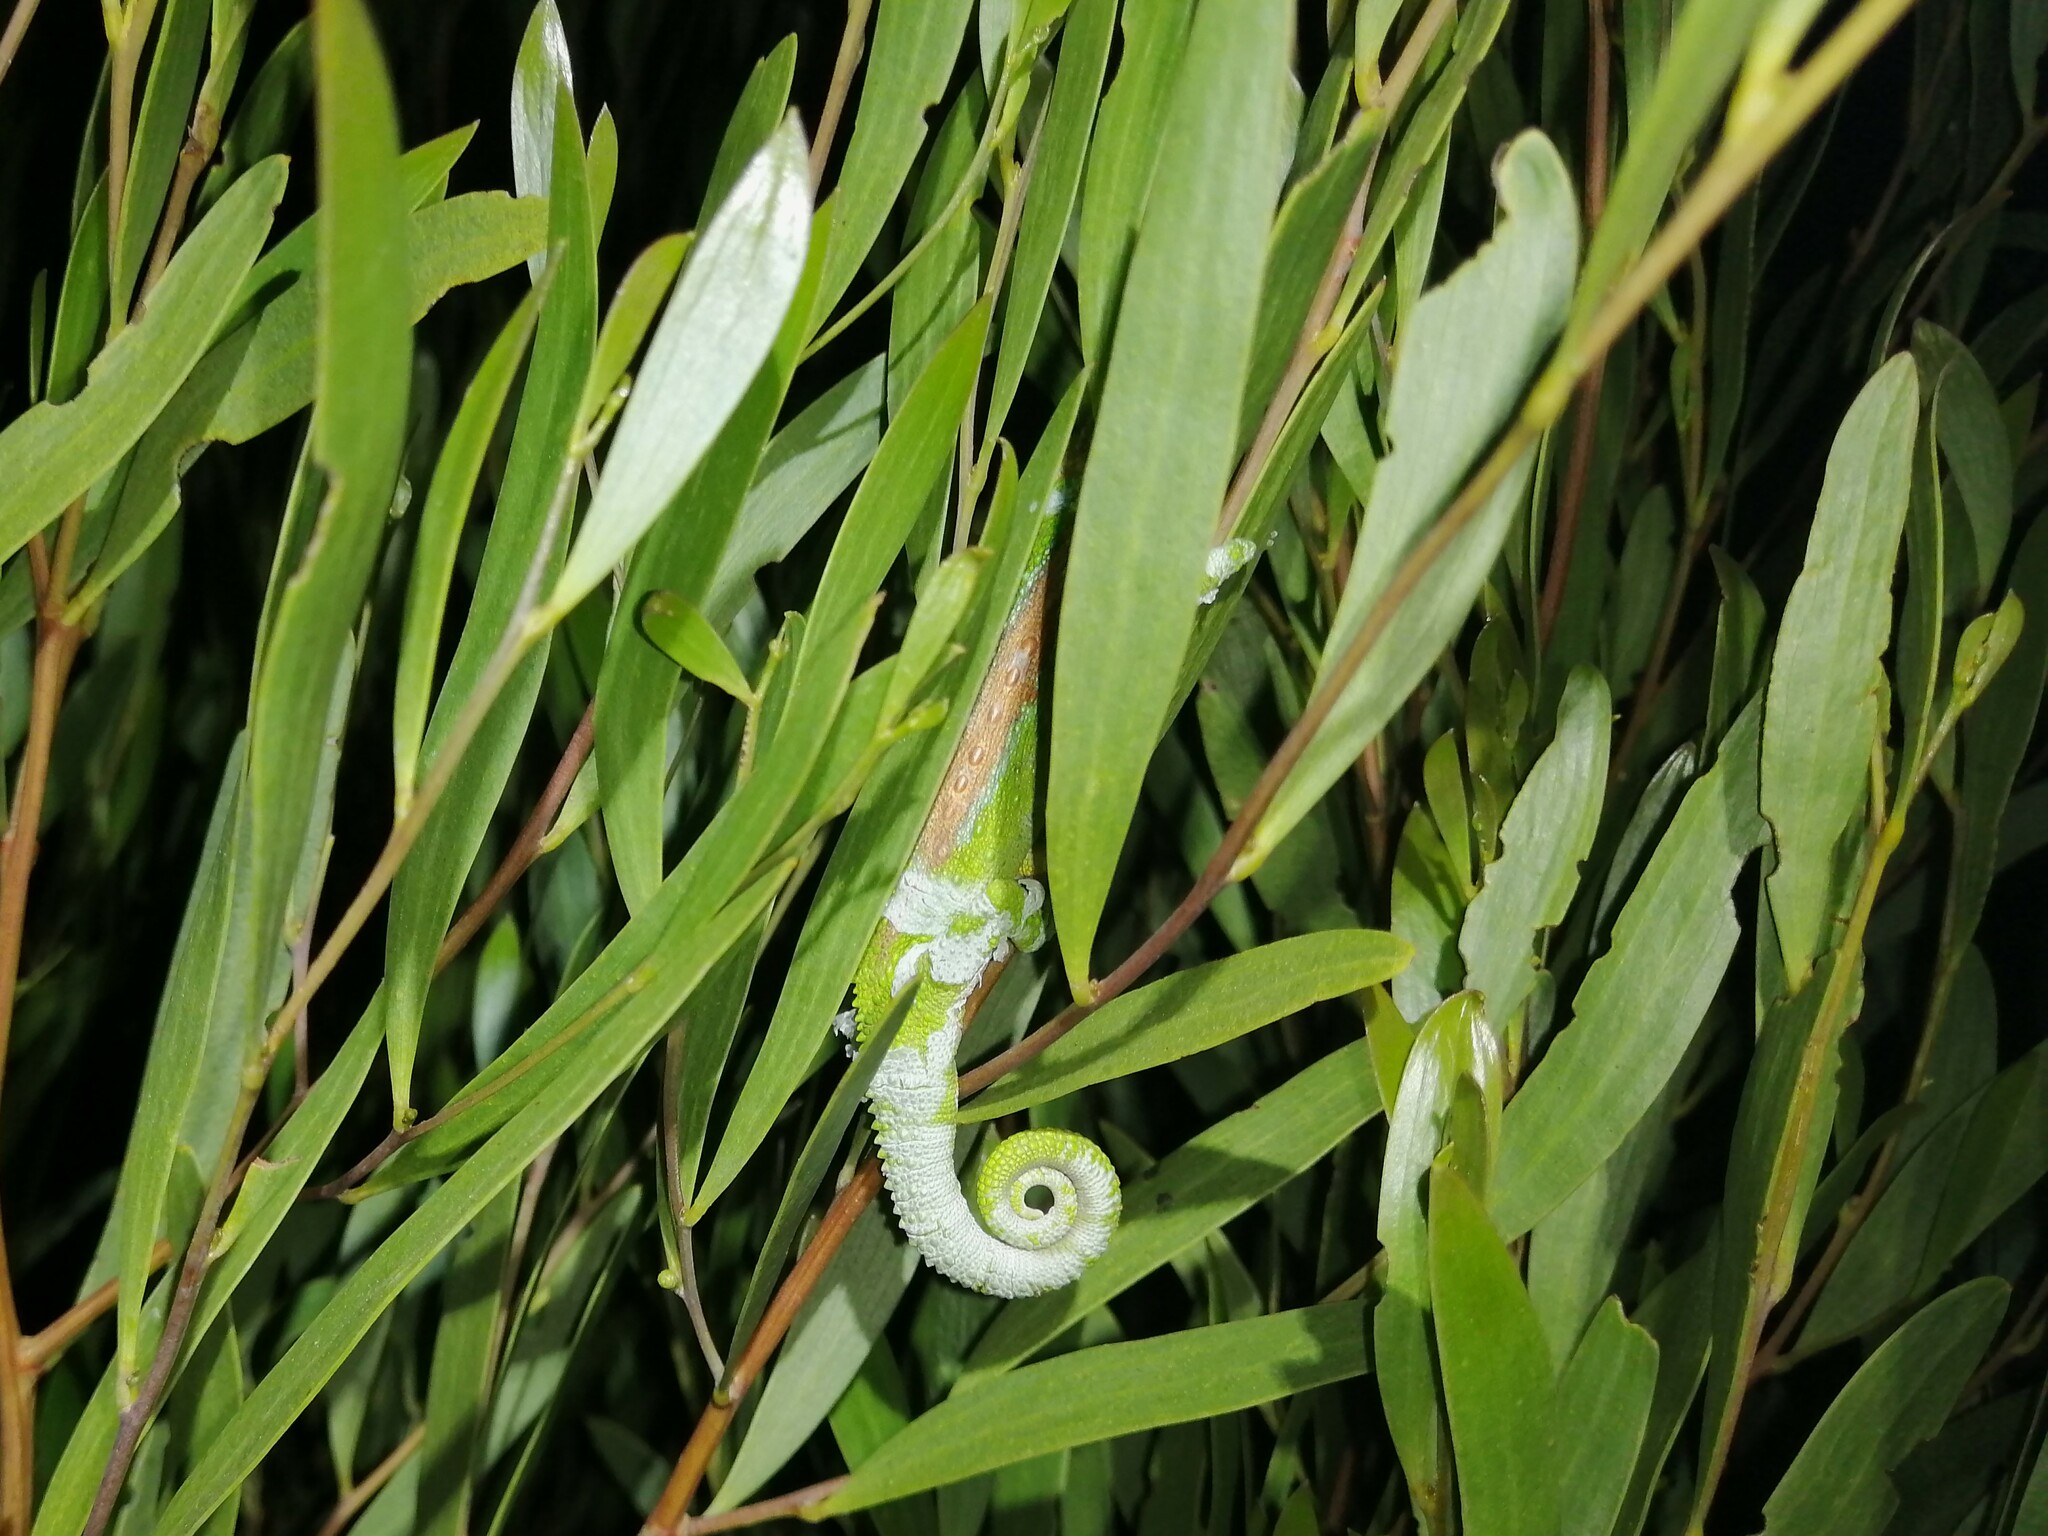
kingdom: Animalia
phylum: Chordata
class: Squamata
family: Chamaeleonidae
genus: Bradypodion
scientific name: Bradypodion pumilum
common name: Cape dwarf chameleon
